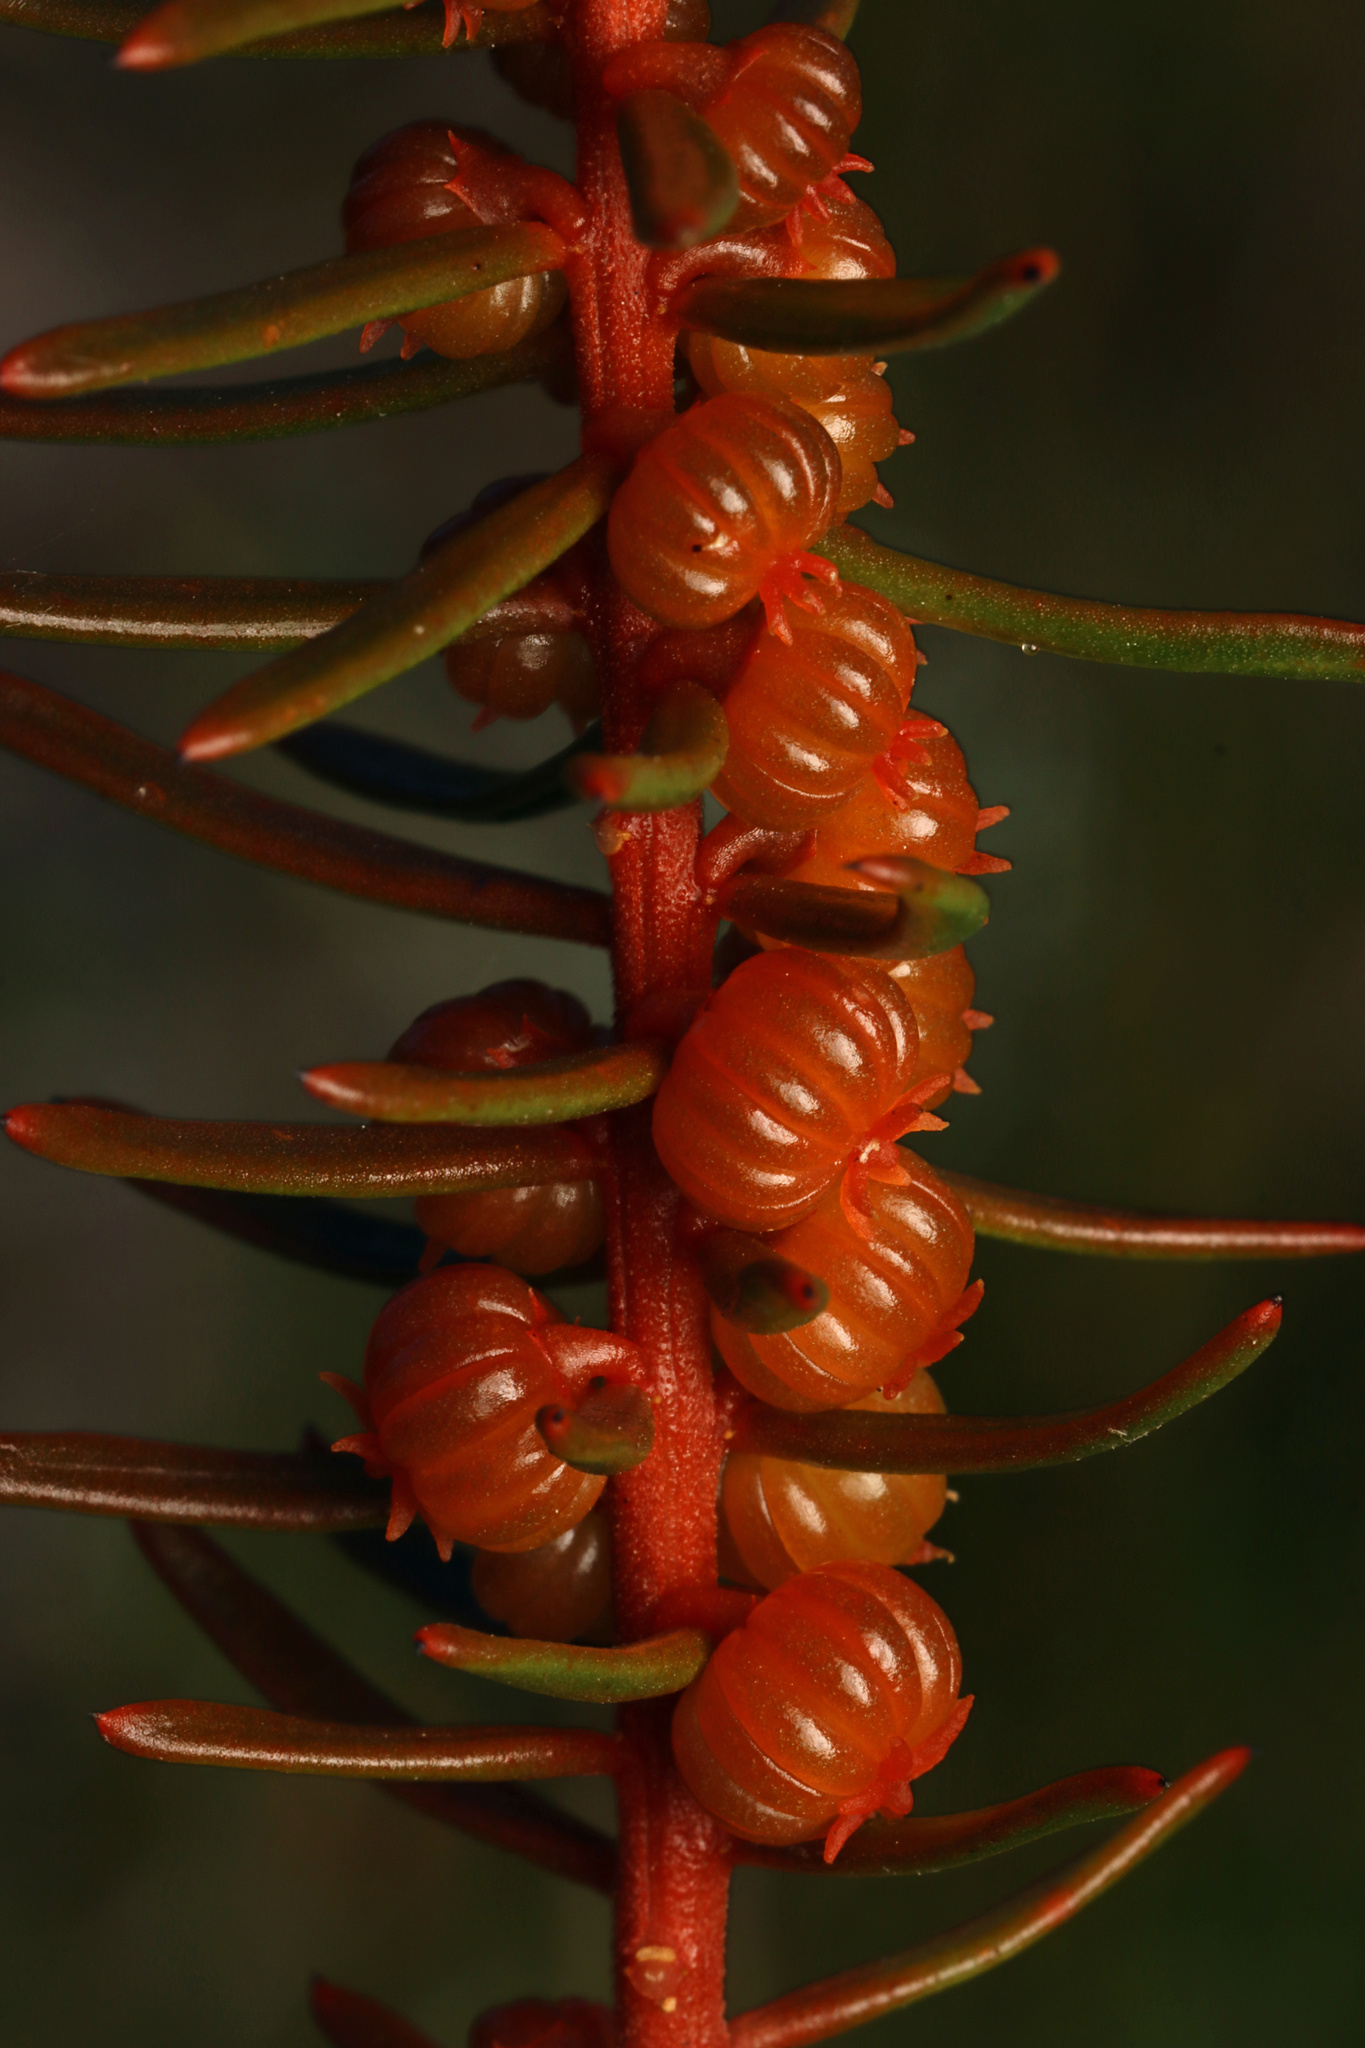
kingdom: Plantae
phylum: Tracheophyta
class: Magnoliopsida
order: Brassicales
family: Gyrostemonaceae
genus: Gyrostemon
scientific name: Gyrostemon australasicus
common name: Wheelfruit
